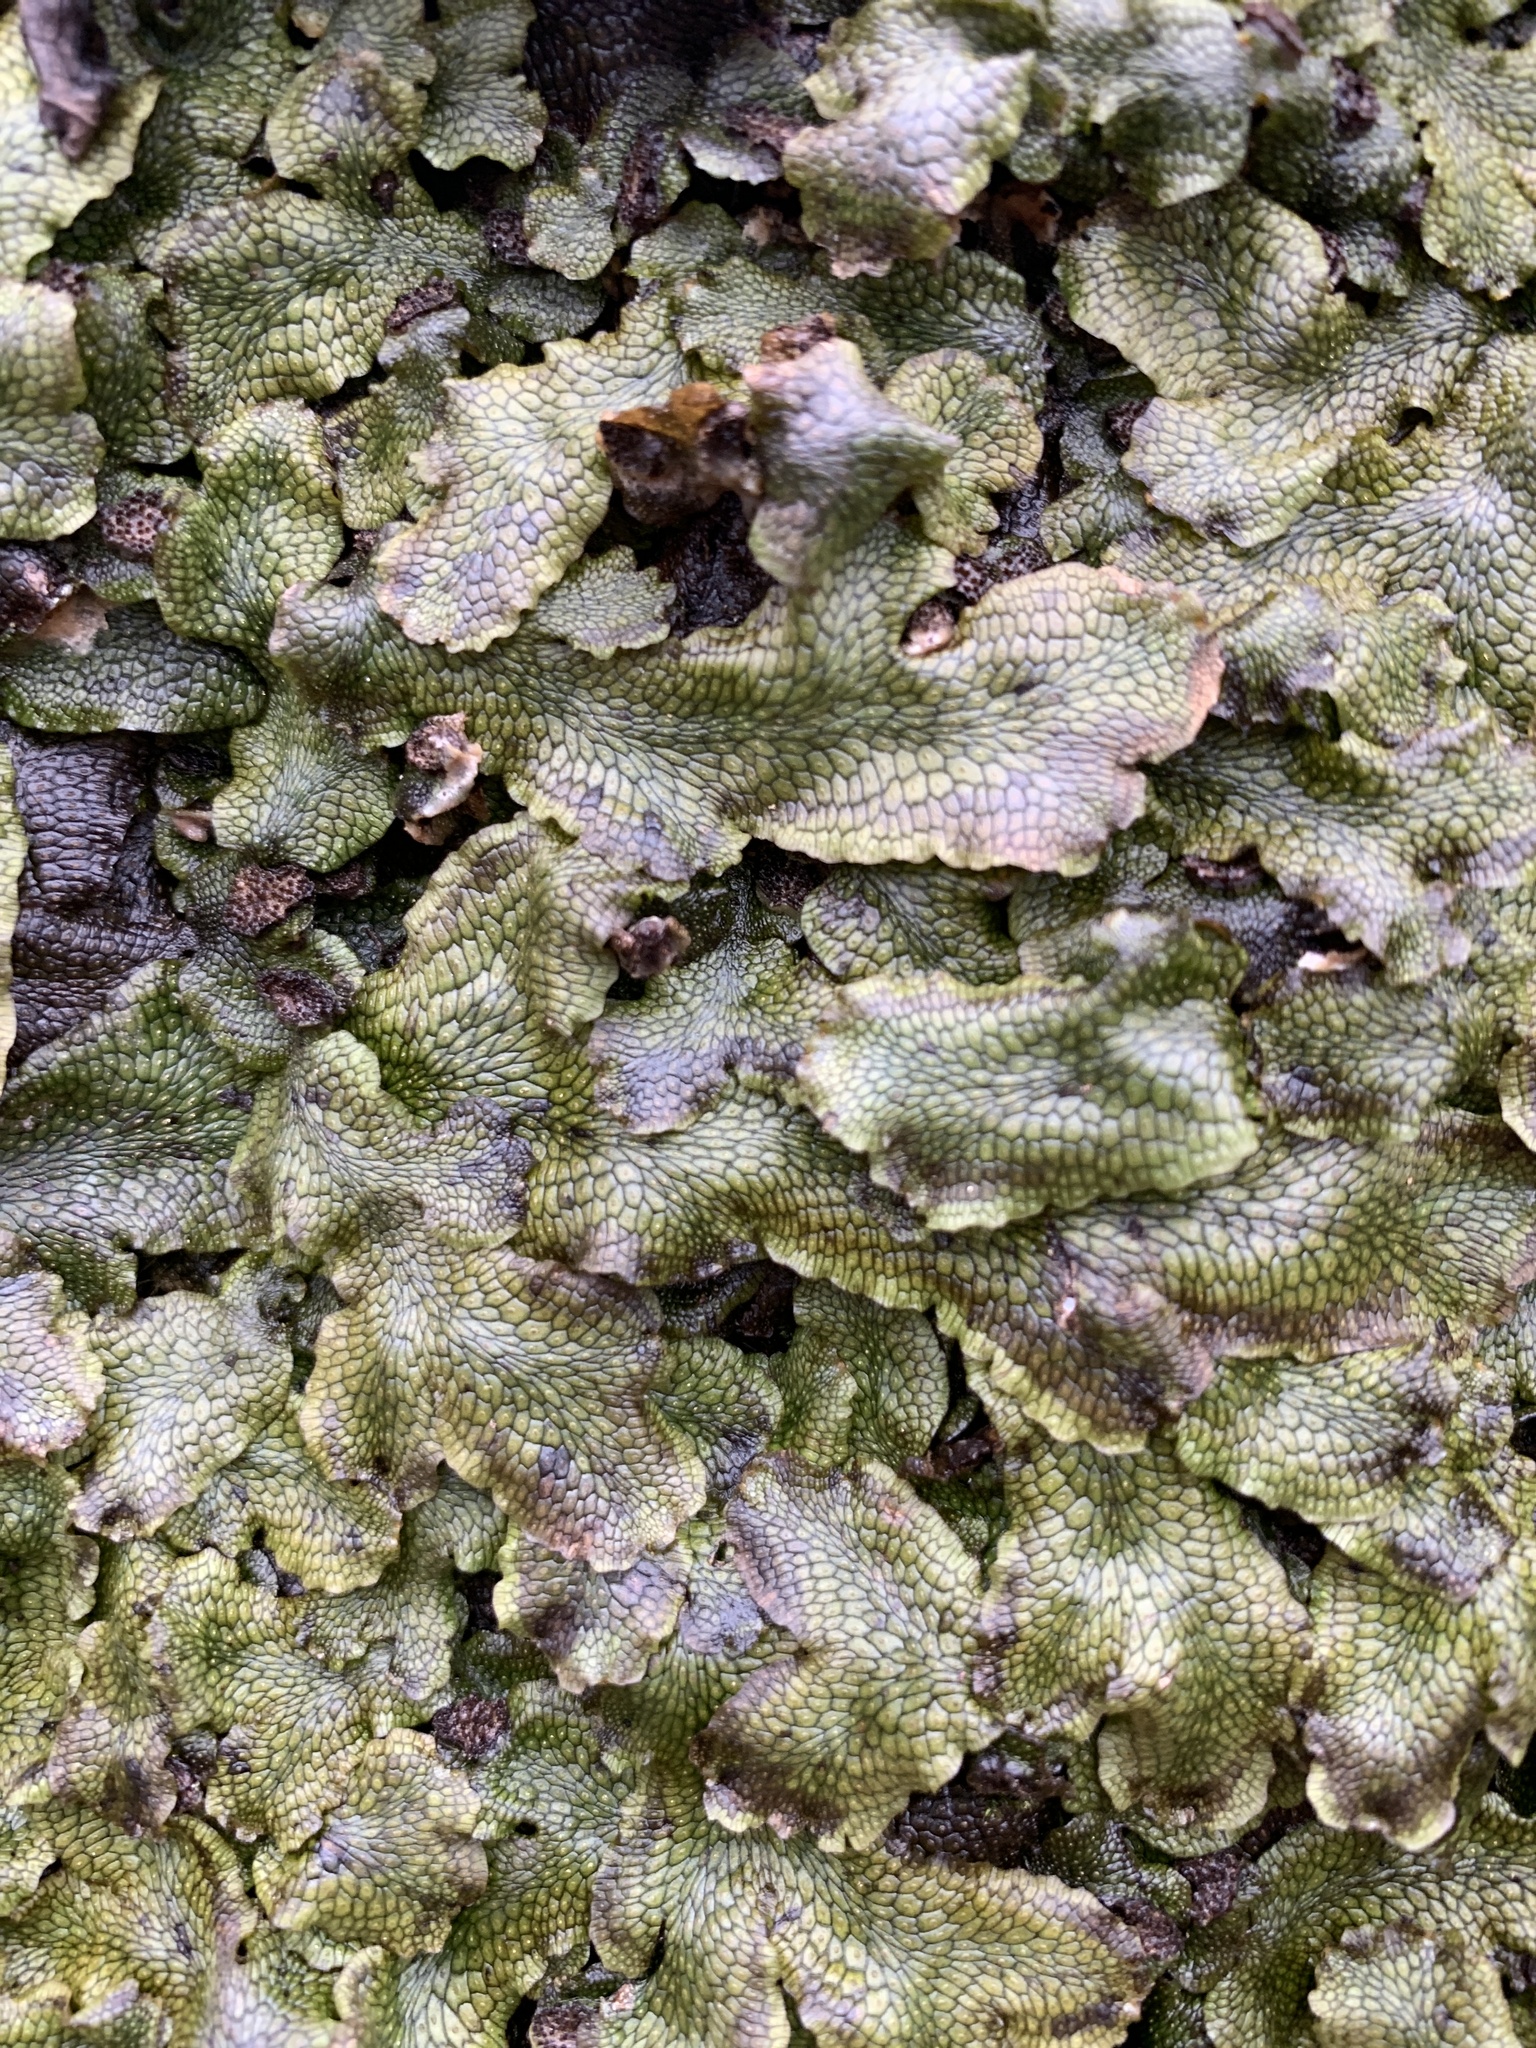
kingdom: Plantae
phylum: Marchantiophyta
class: Marchantiopsida
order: Marchantiales
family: Conocephalaceae
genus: Conocephalum
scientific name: Conocephalum salebrosum
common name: Cat-tongue liverwort
